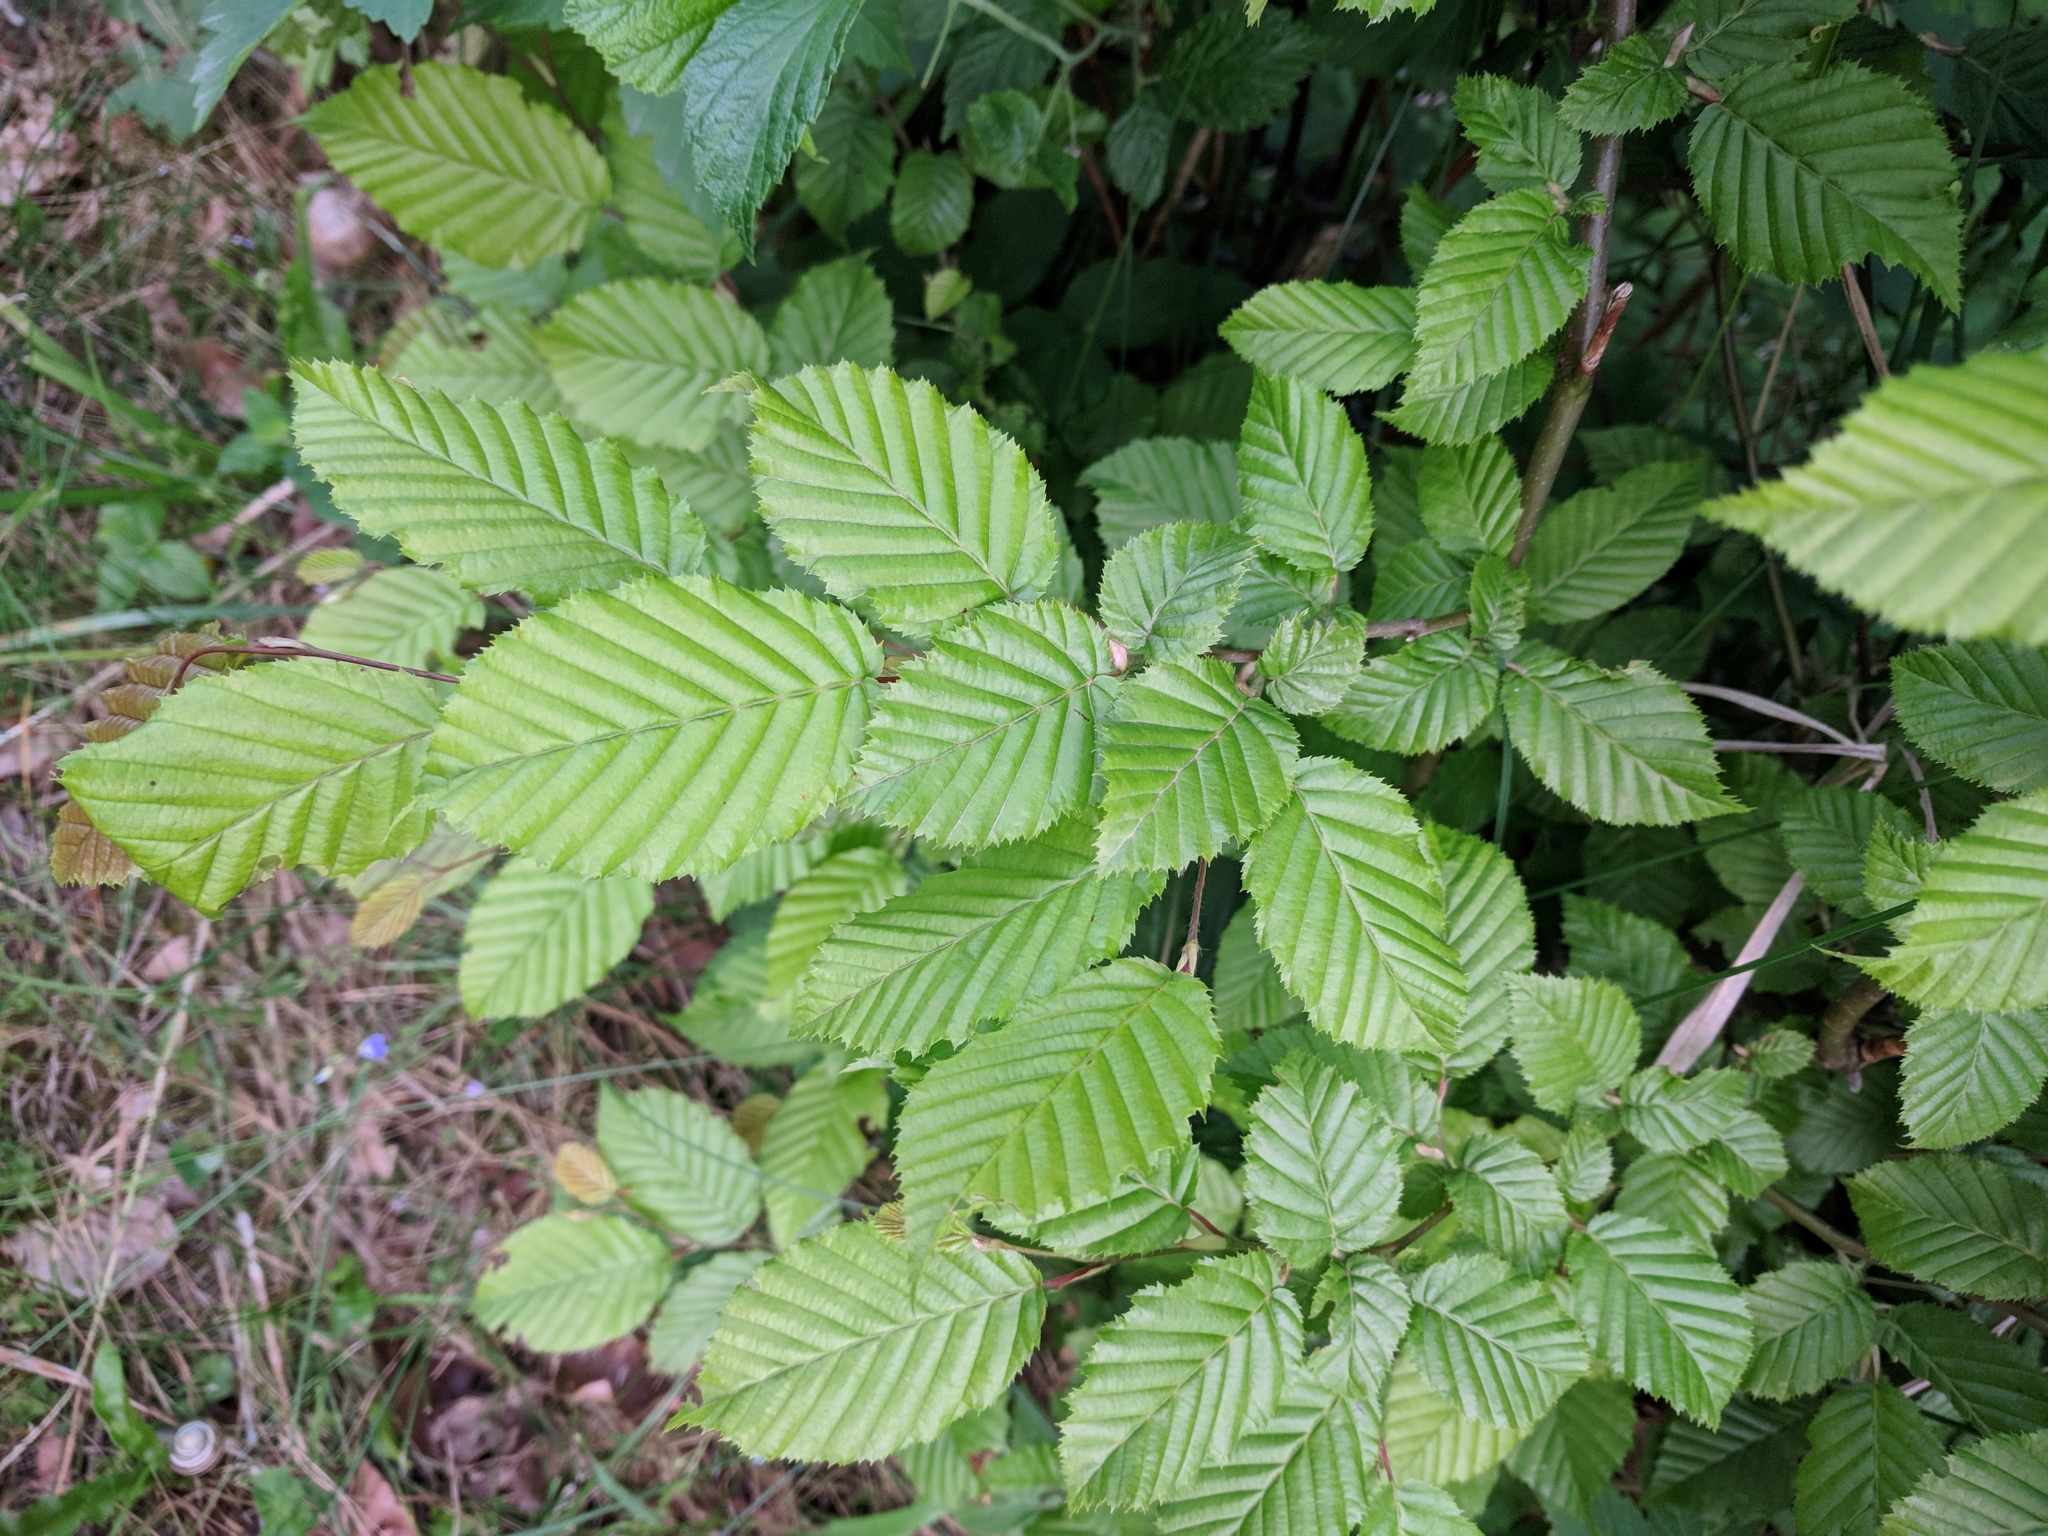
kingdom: Plantae
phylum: Tracheophyta
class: Magnoliopsida
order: Fagales
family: Betulaceae
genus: Carpinus
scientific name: Carpinus betulus
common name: Hornbeam
